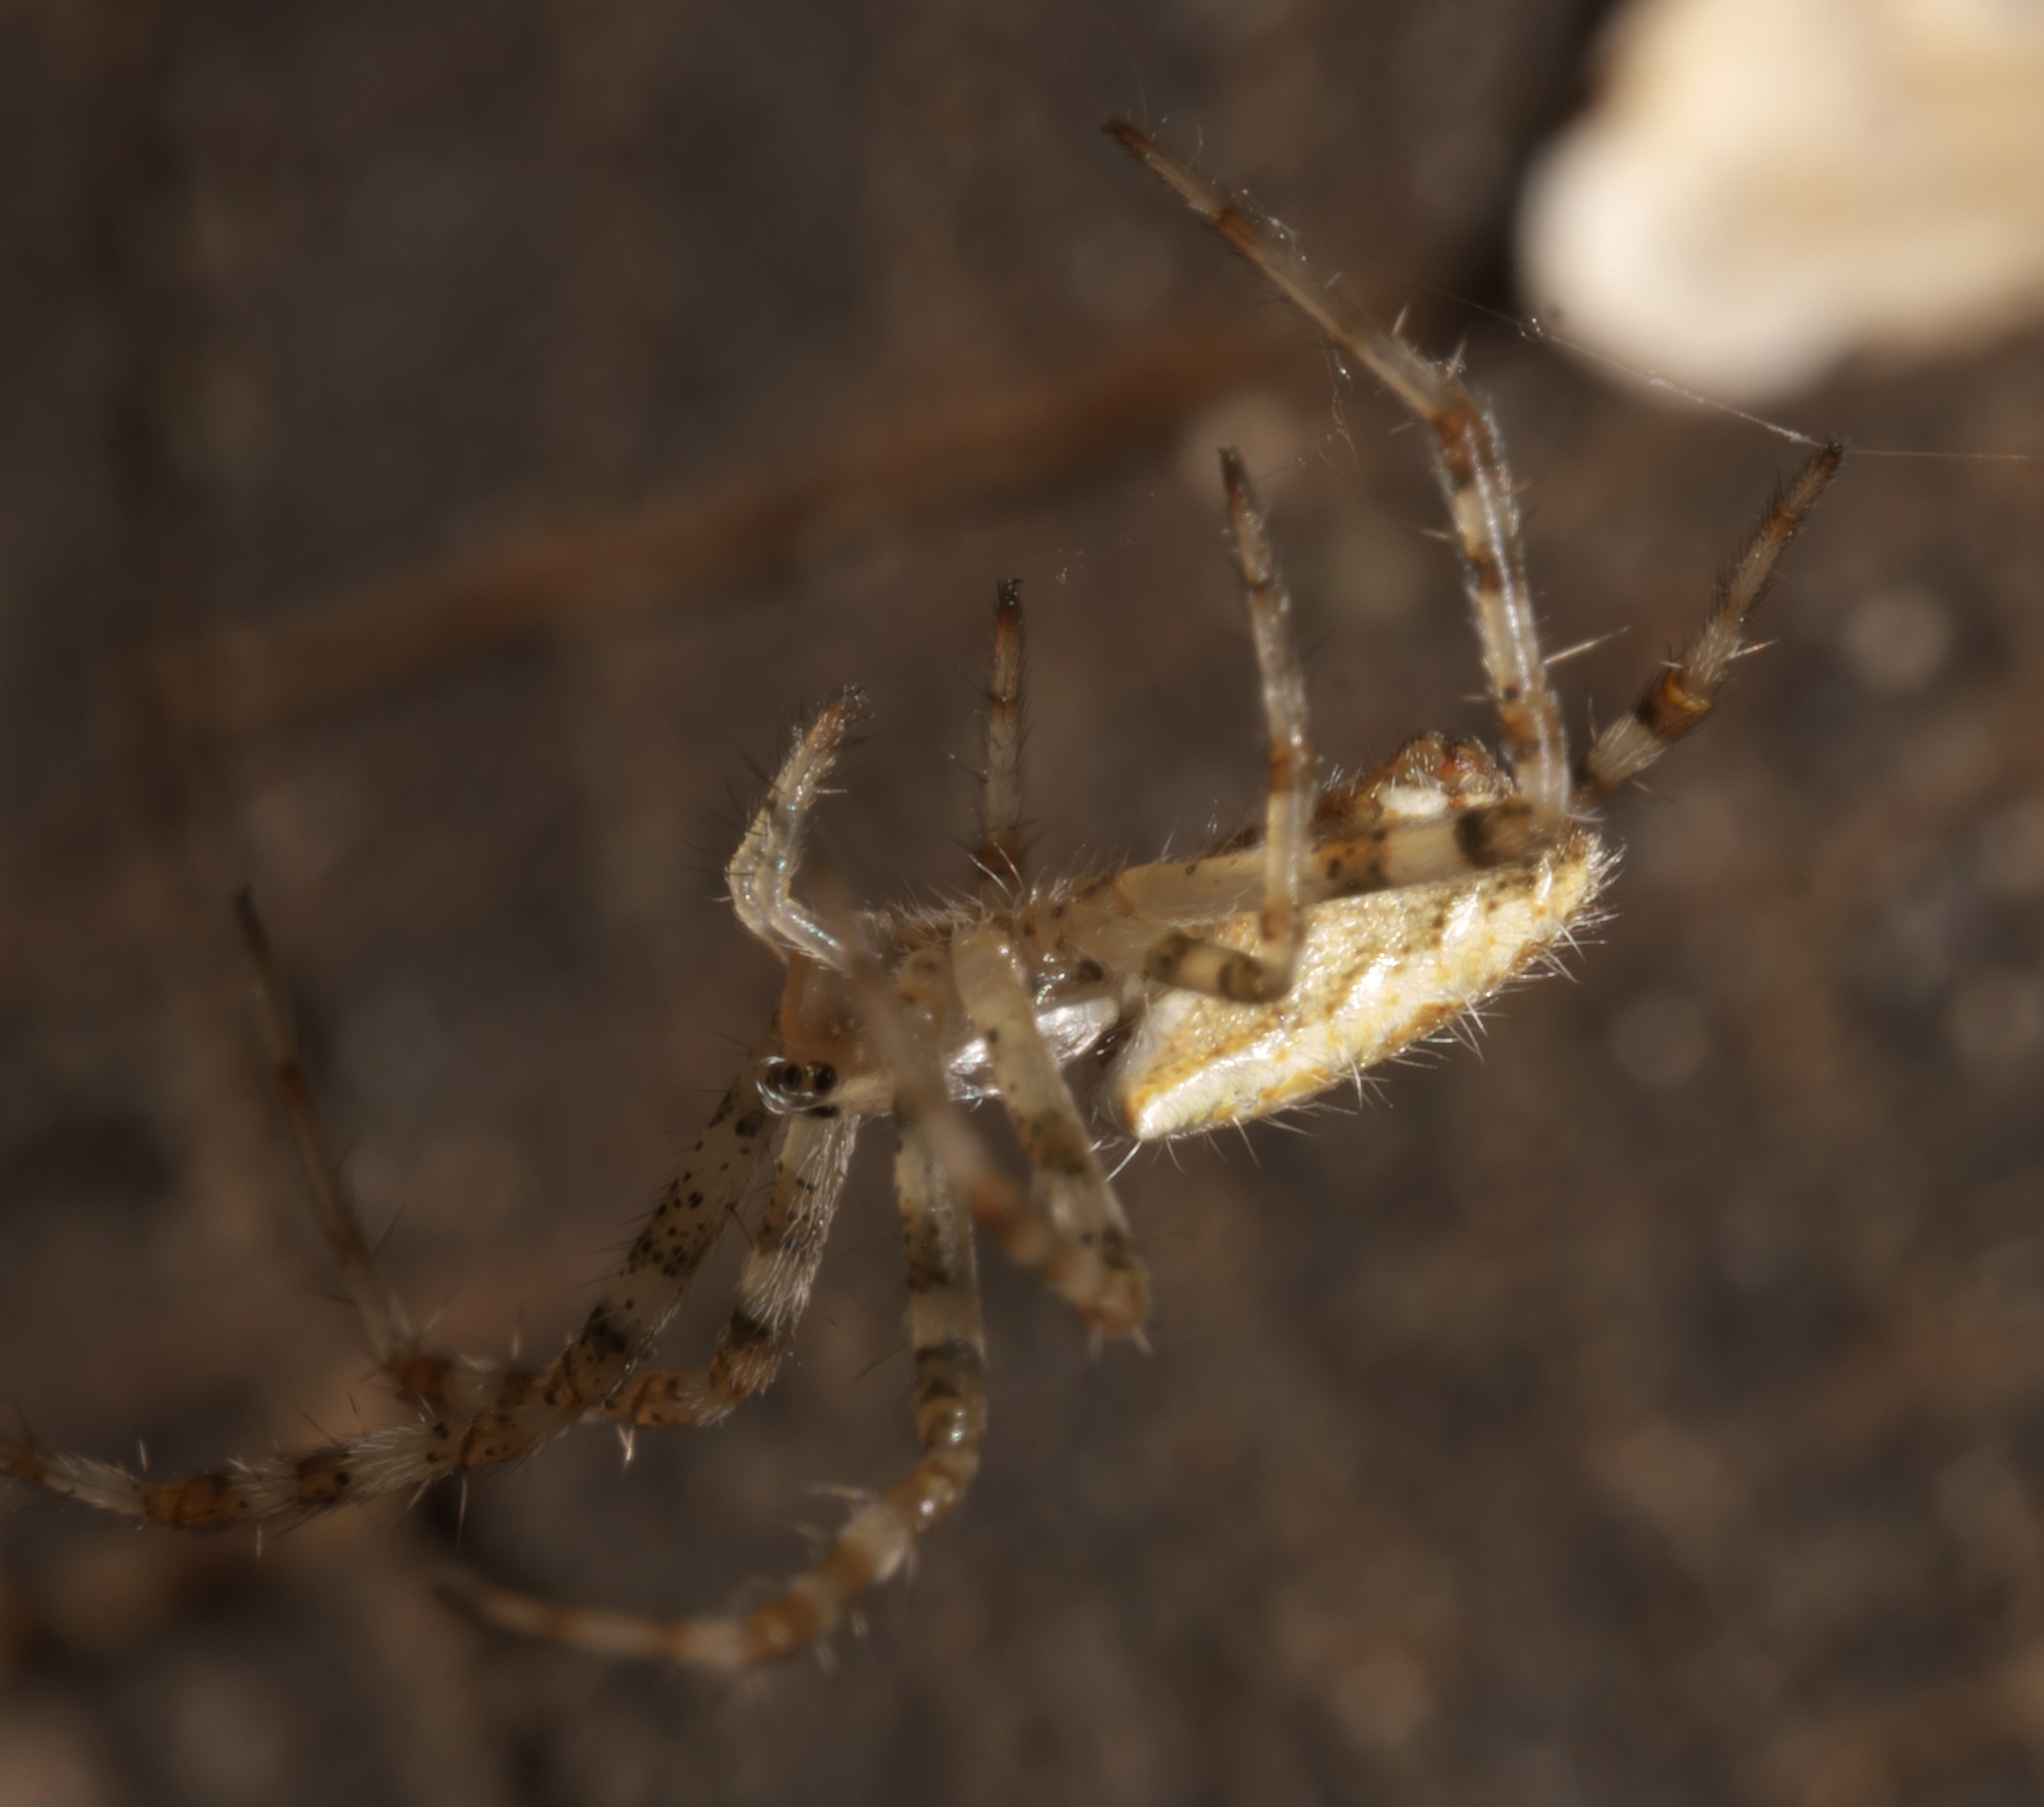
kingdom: Animalia
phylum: Arthropoda
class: Arachnida
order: Araneae
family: Araneidae
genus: Argiope
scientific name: Argiope aurantia
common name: Orb weavers
